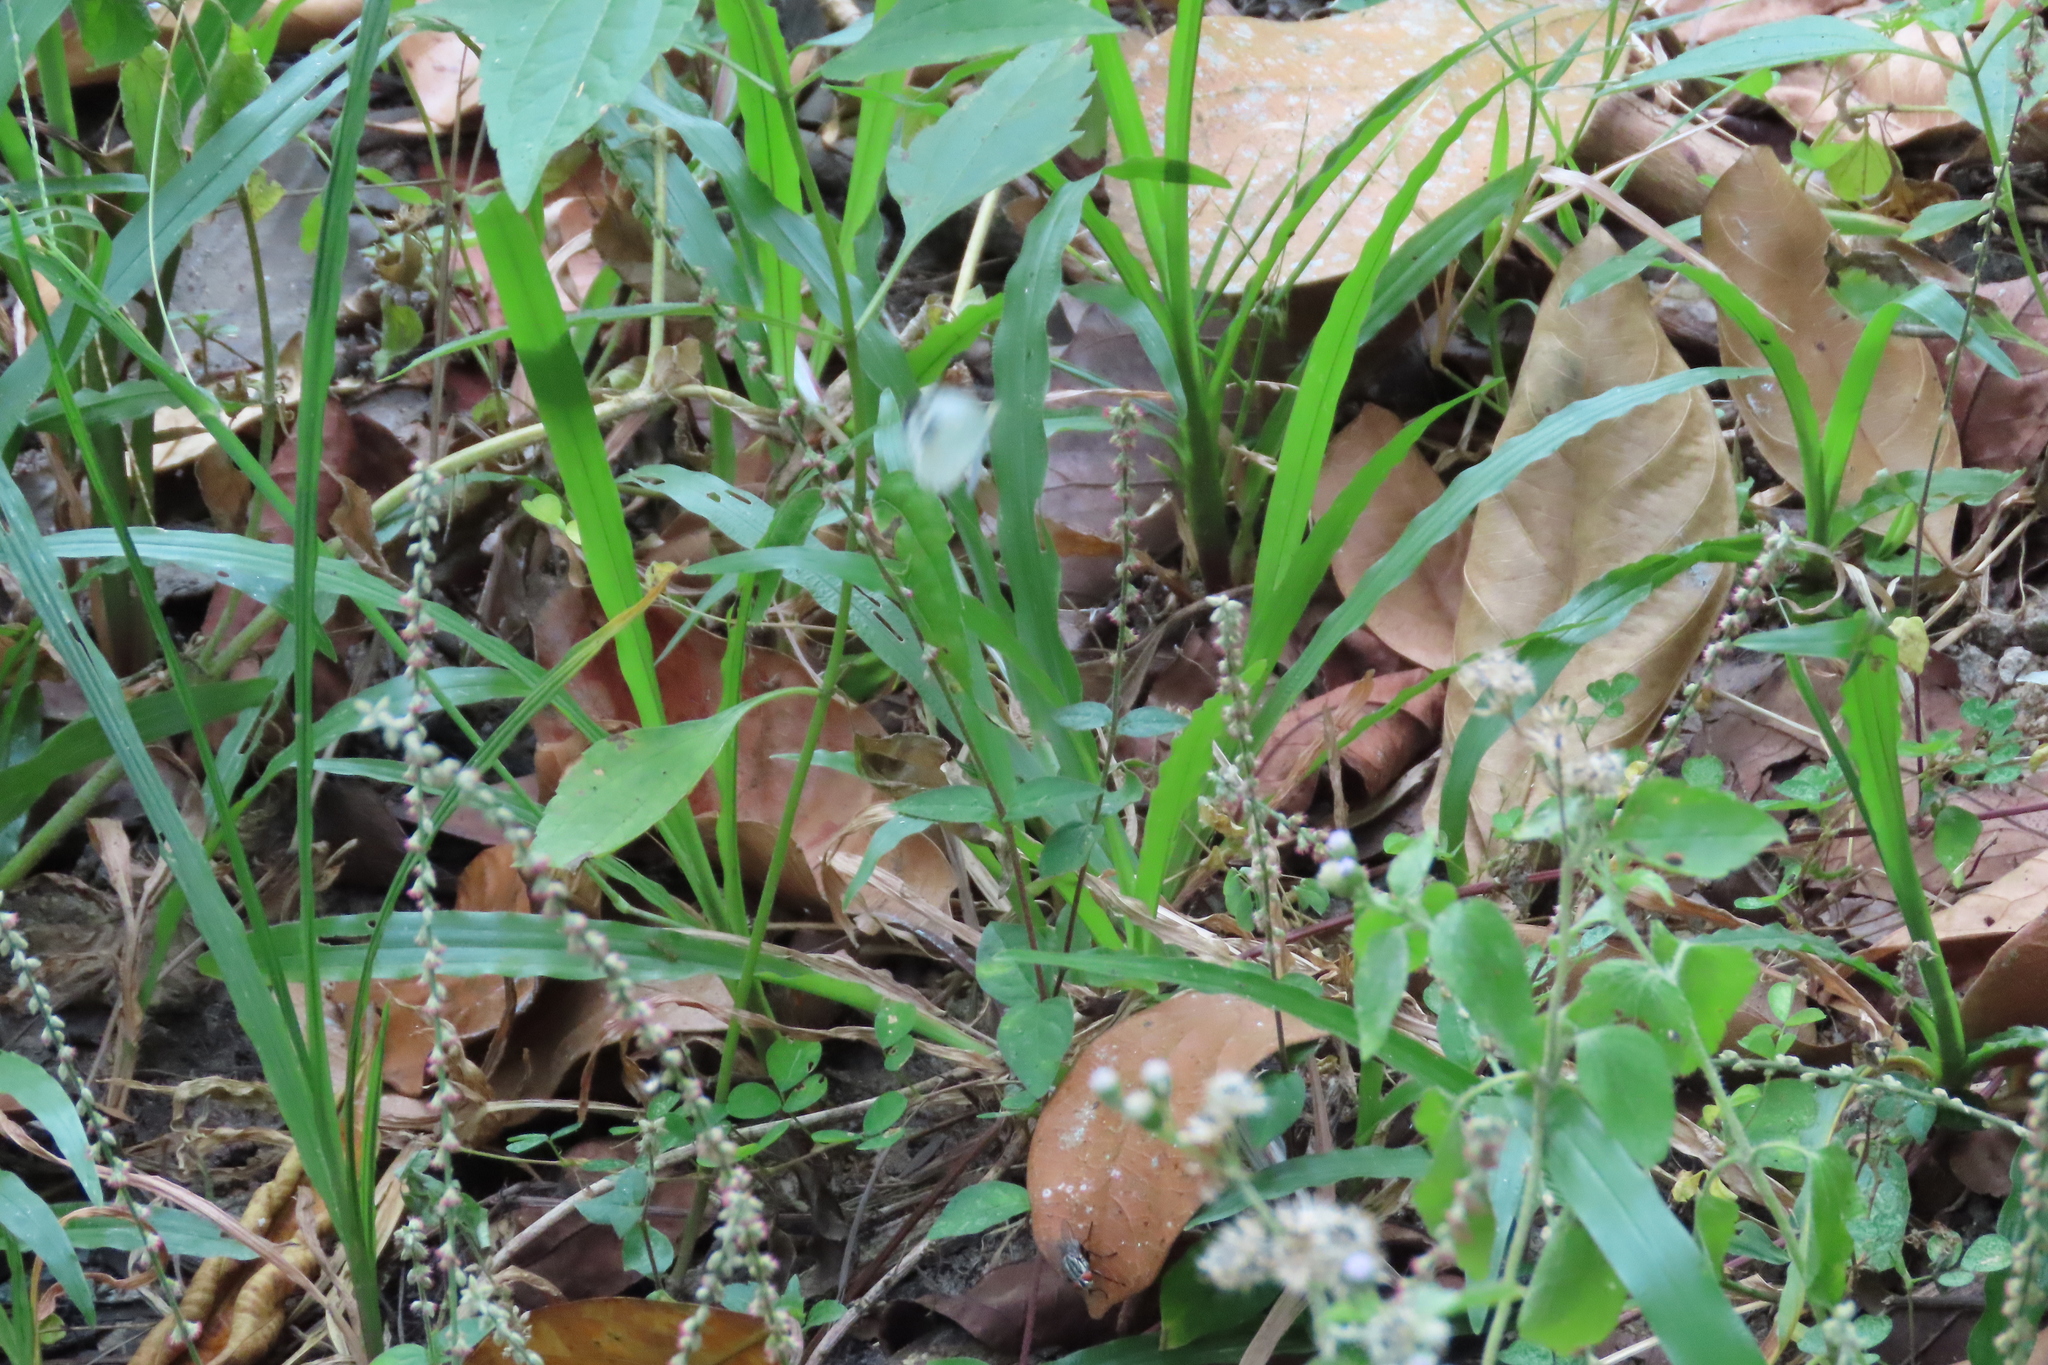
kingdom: Animalia
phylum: Arthropoda
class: Insecta
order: Lepidoptera
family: Pieridae
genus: Leptosia
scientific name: Leptosia nina
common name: Psyche
